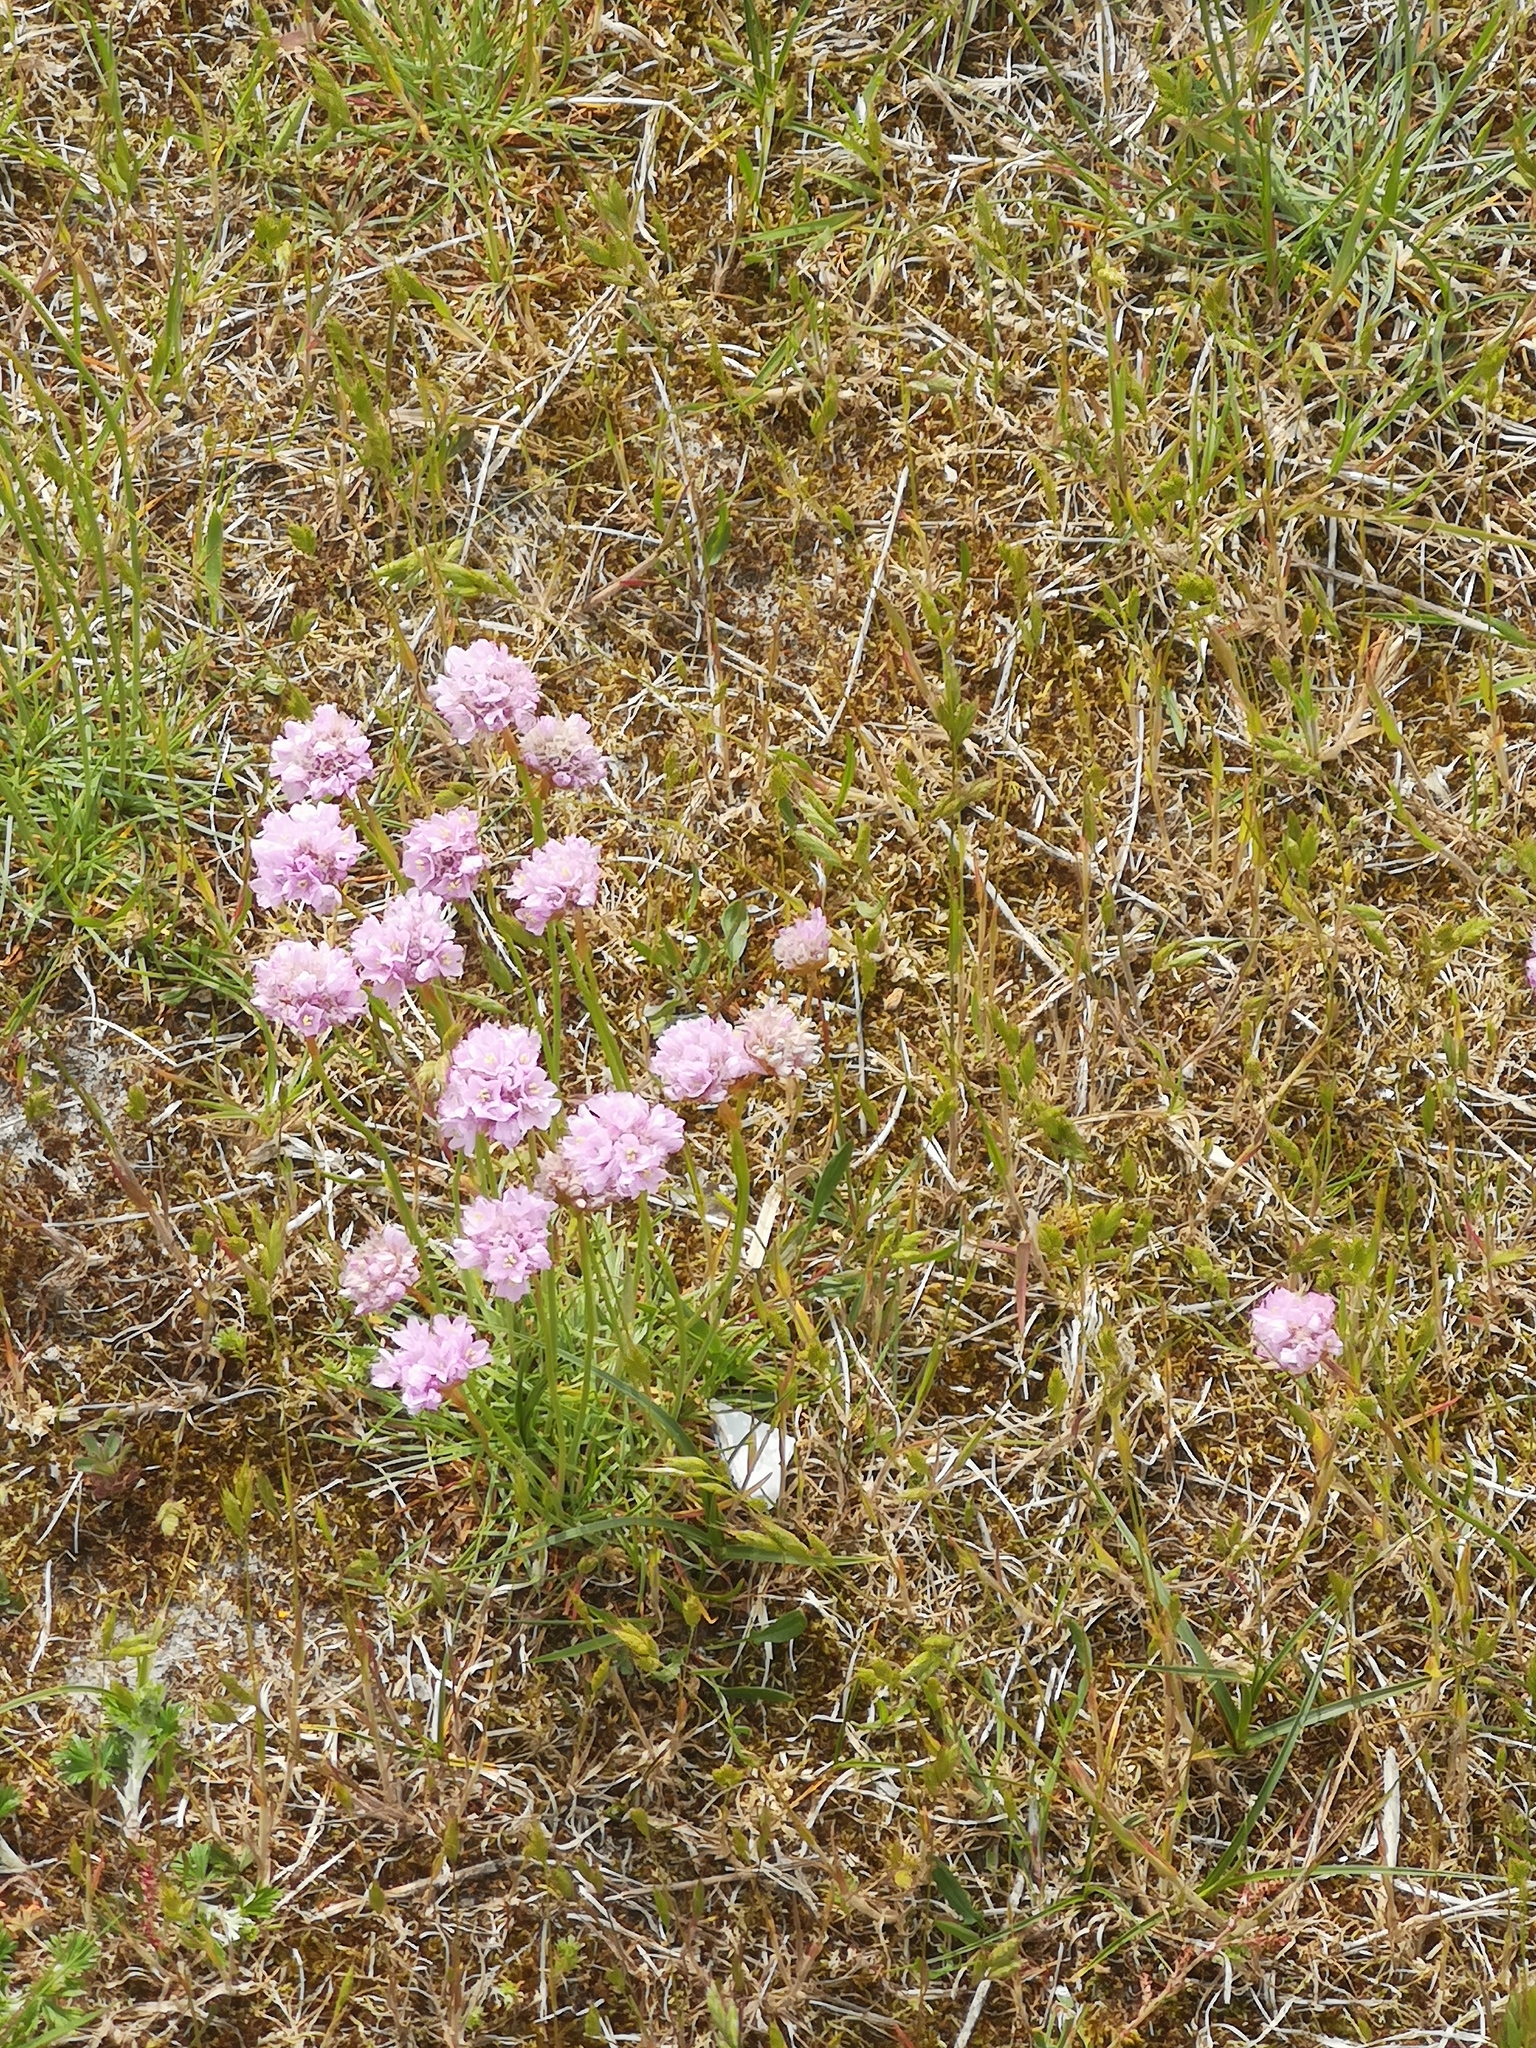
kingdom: Plantae
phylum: Tracheophyta
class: Magnoliopsida
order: Caryophyllales
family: Plumbaginaceae
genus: Armeria
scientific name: Armeria maritima
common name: Thrift
